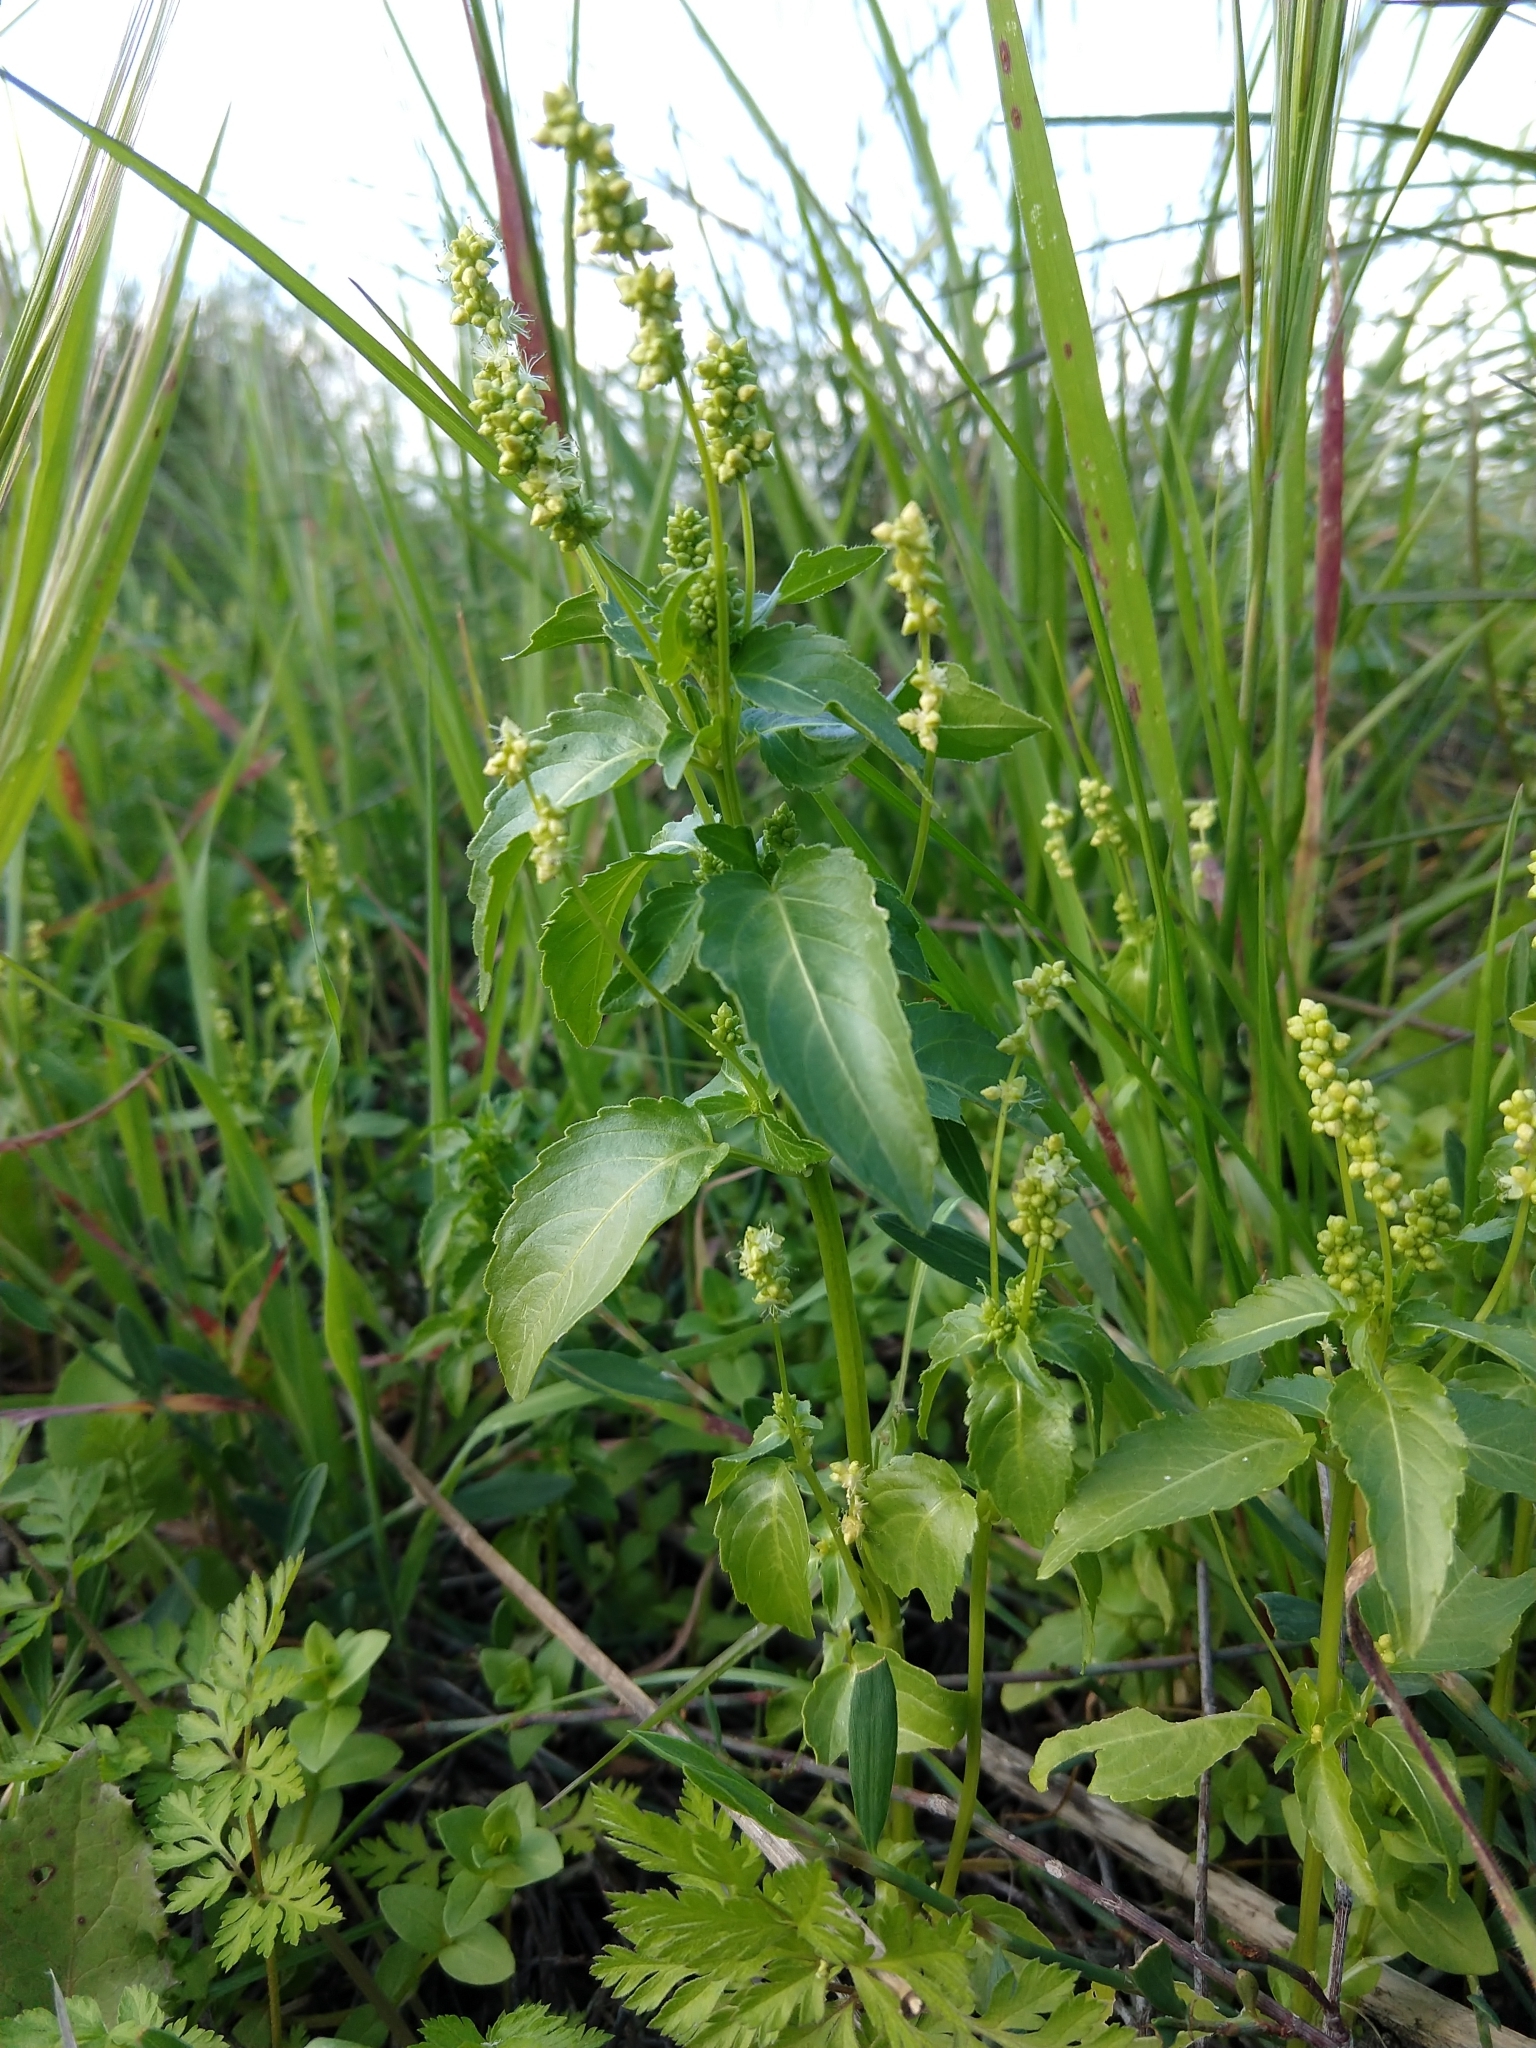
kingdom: Plantae
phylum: Tracheophyta
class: Magnoliopsida
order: Malpighiales
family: Euphorbiaceae
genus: Mercurialis
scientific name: Mercurialis annua
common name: Annual mercury
